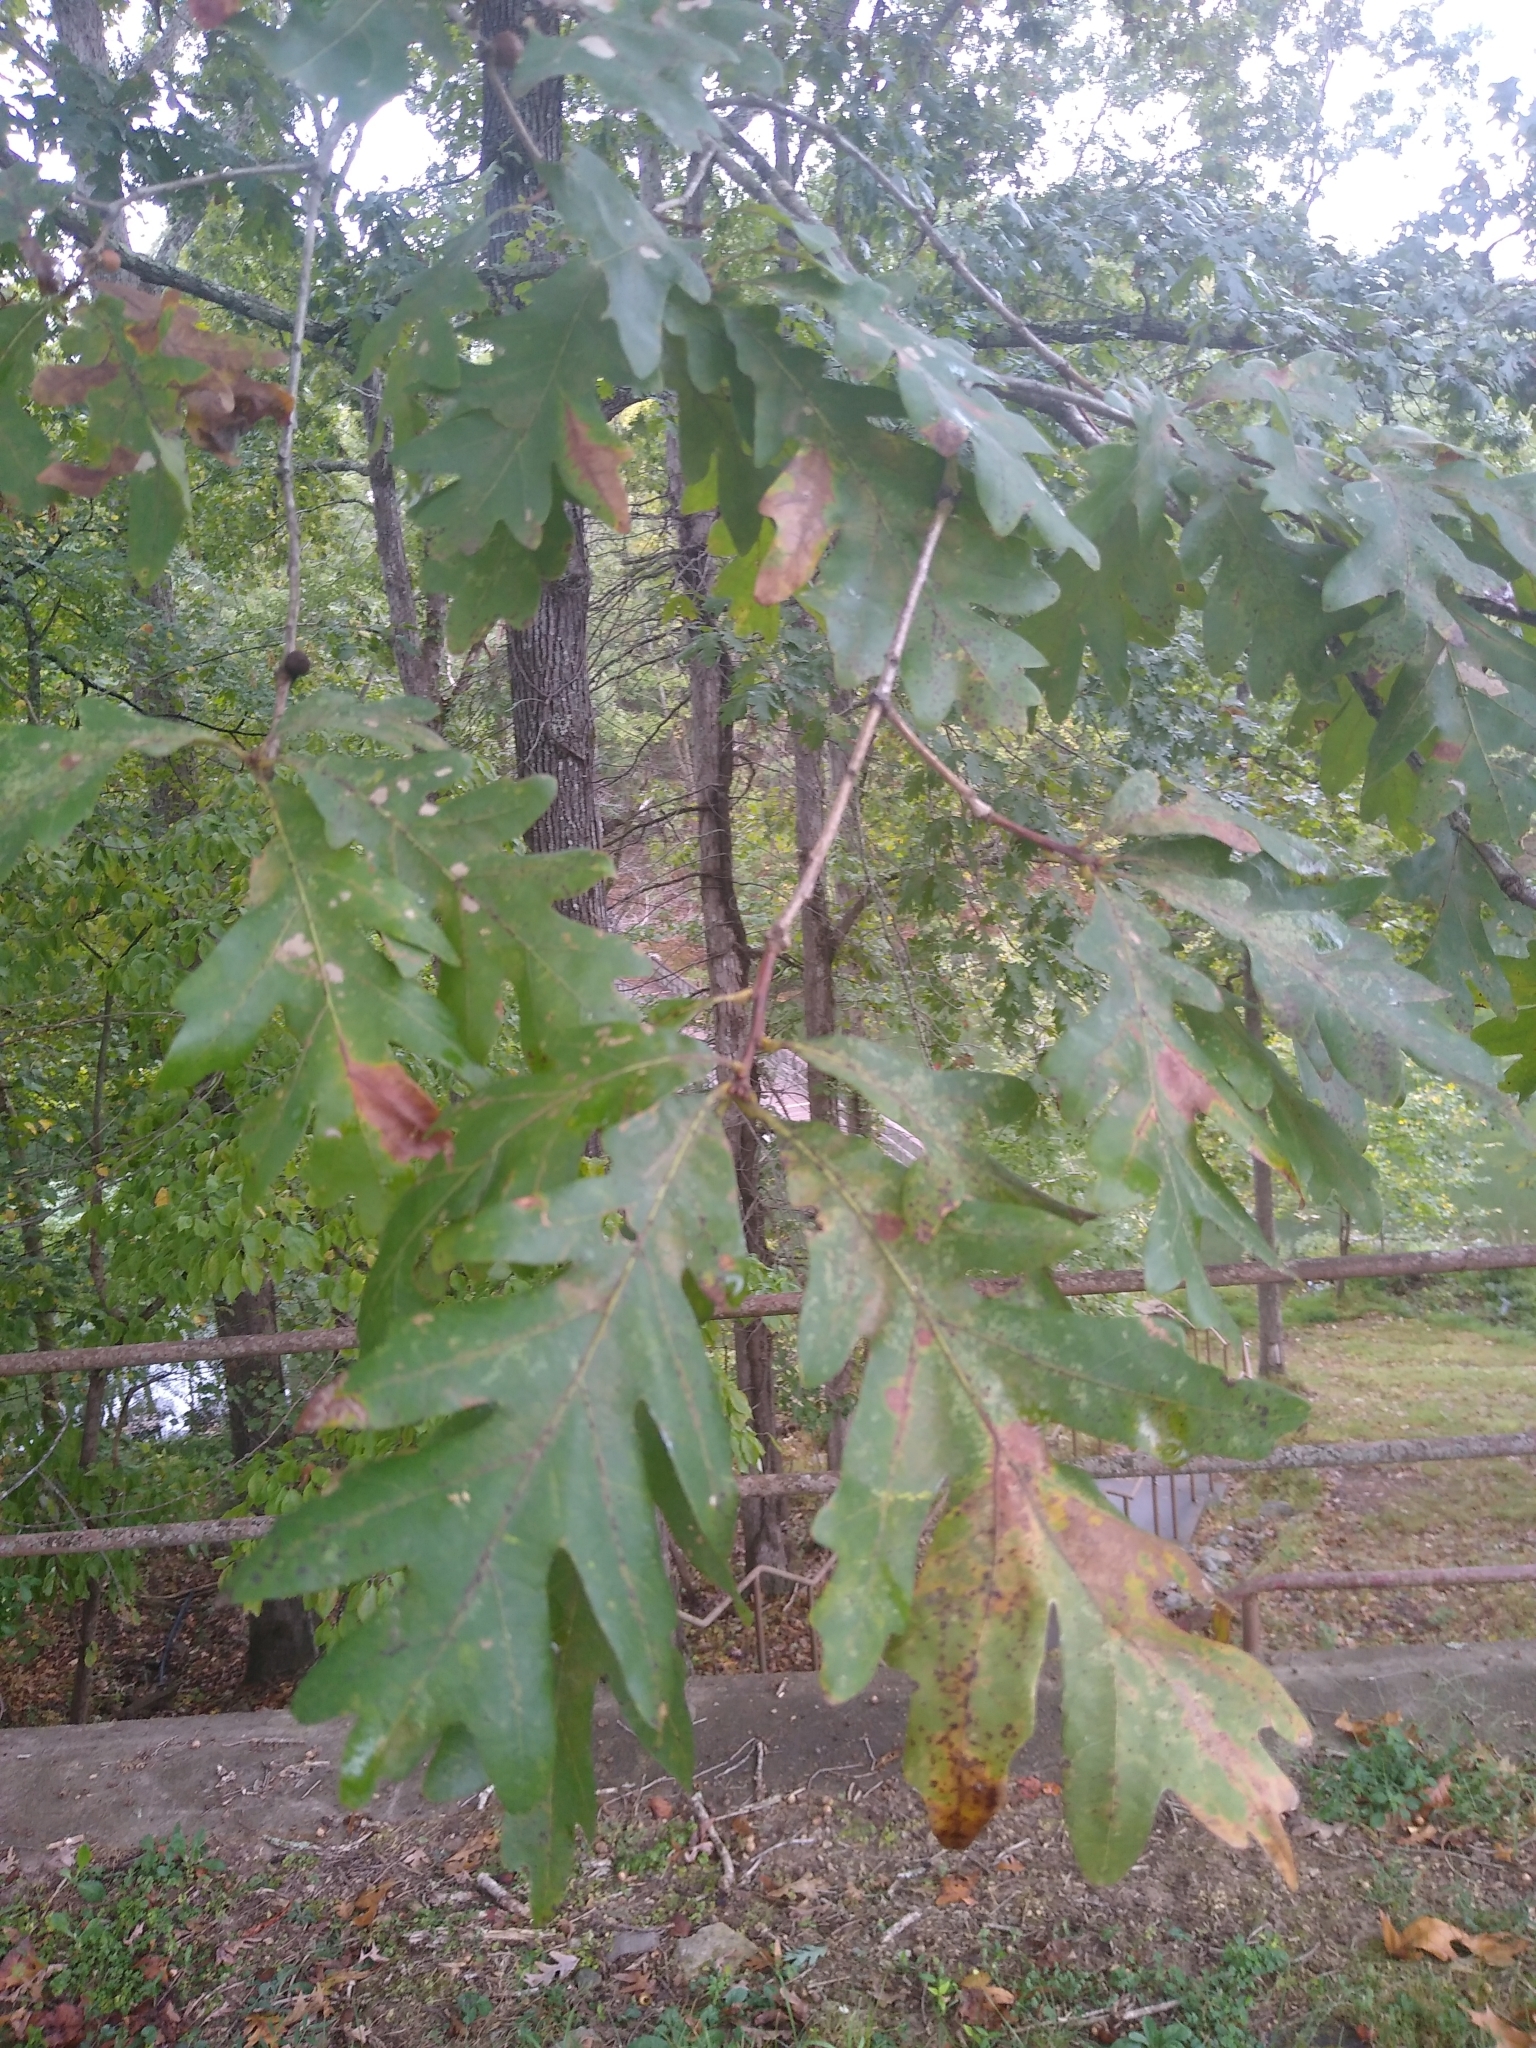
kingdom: Plantae
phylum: Tracheophyta
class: Magnoliopsida
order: Fagales
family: Fagaceae
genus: Quercus
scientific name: Quercus alba
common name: White oak
